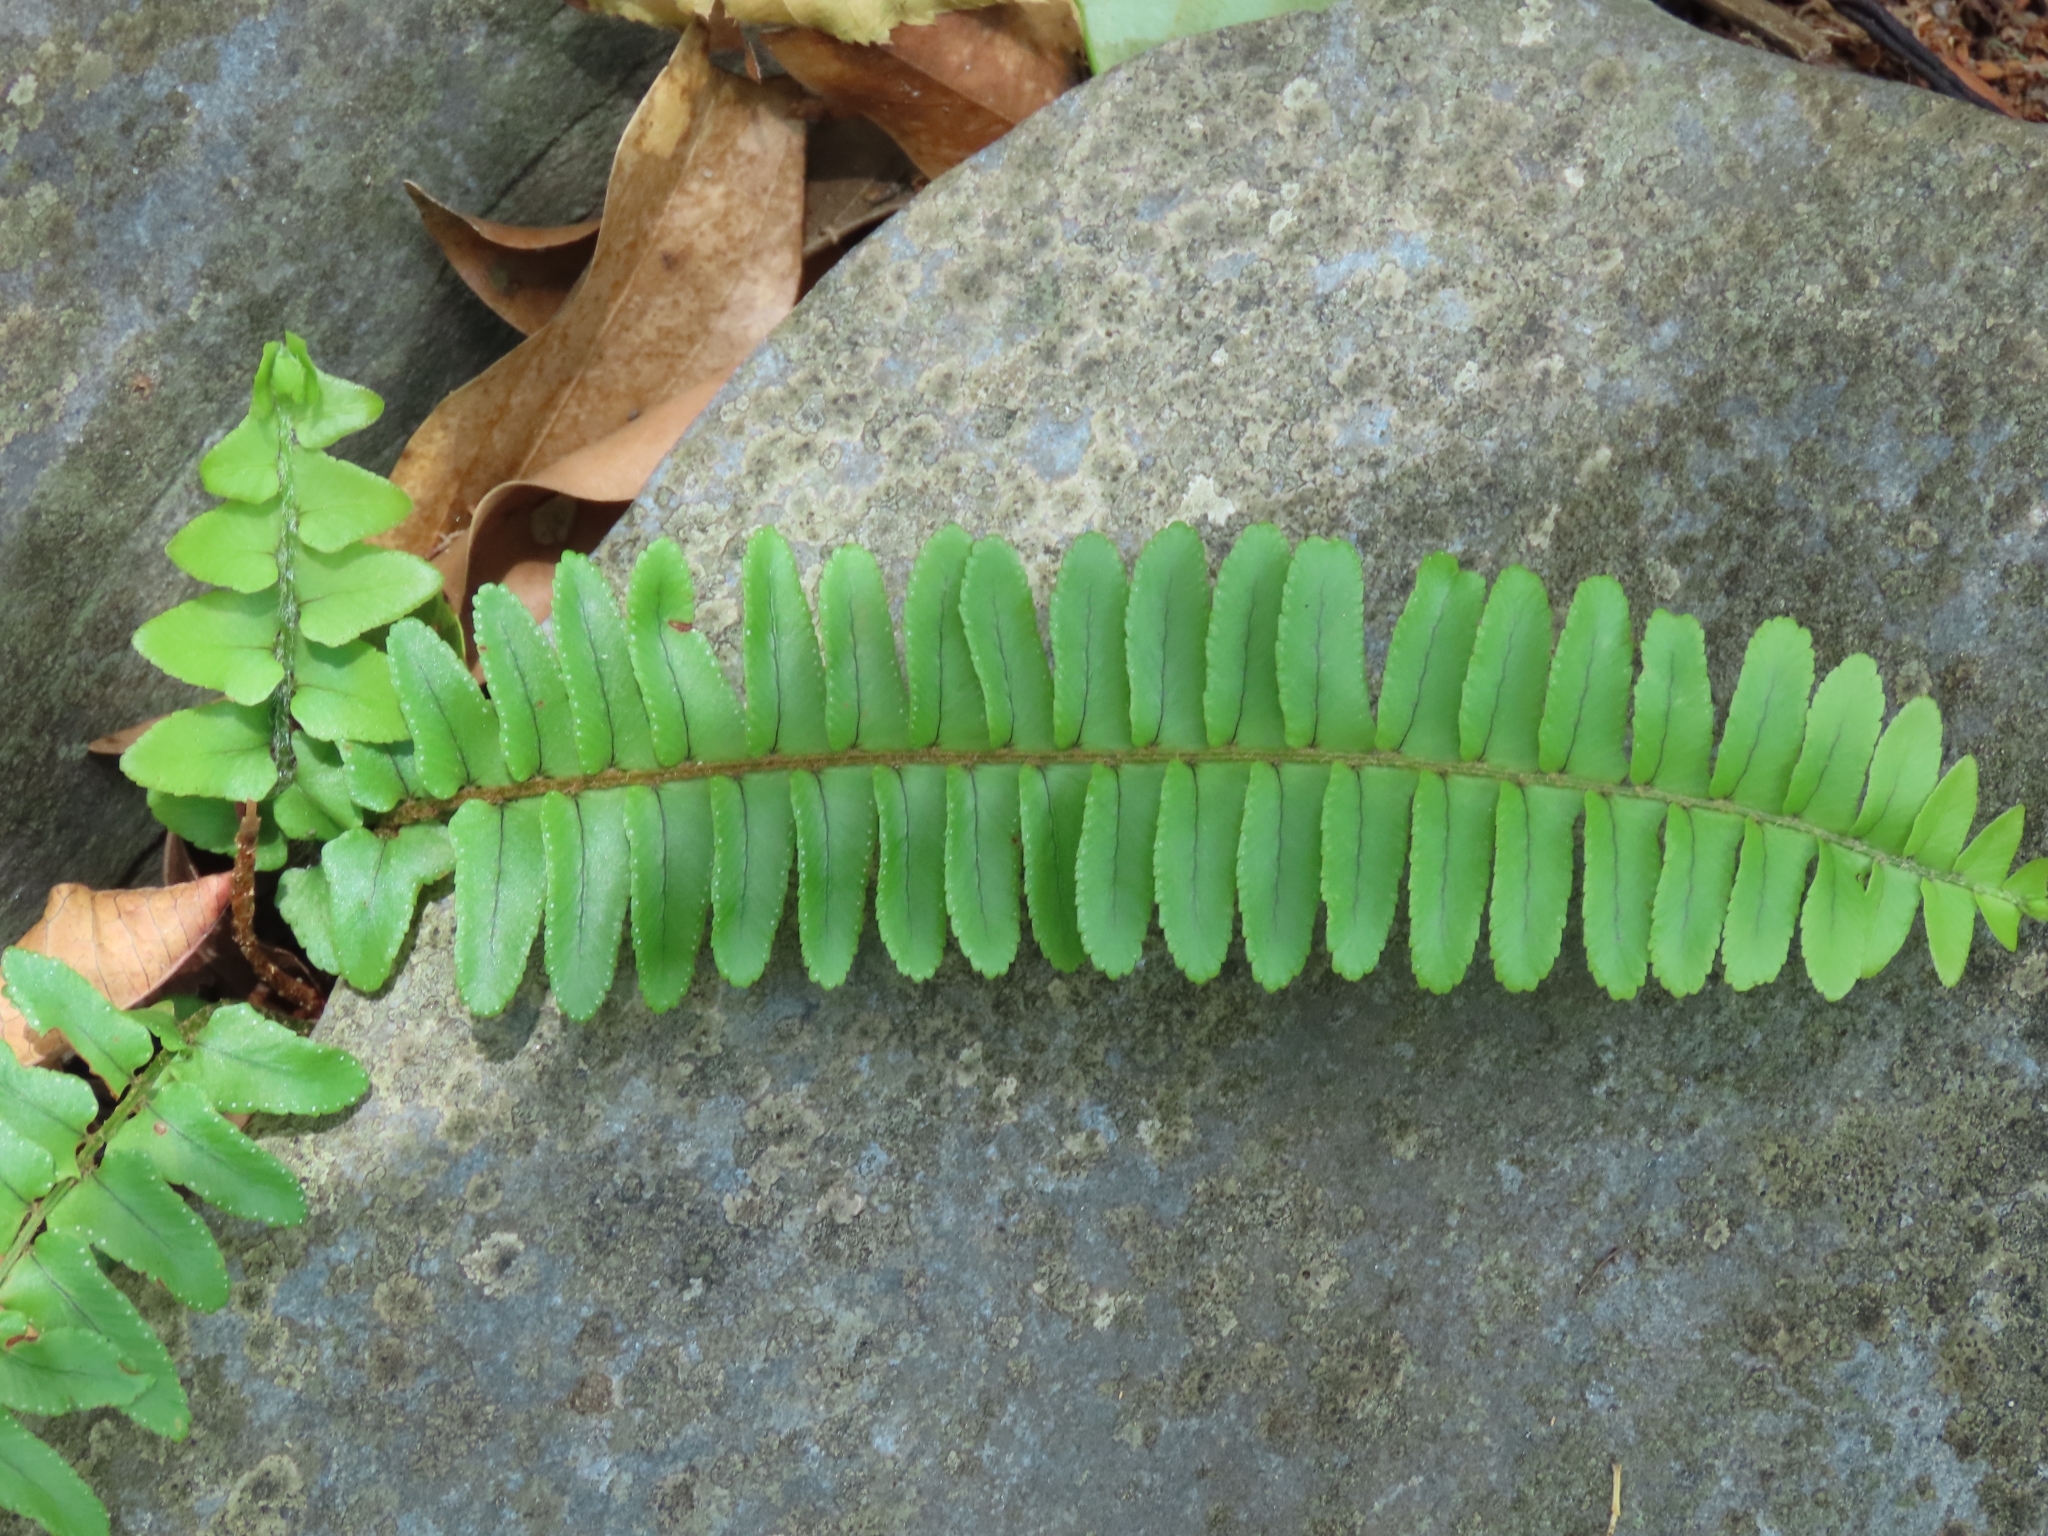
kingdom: Plantae
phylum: Tracheophyta
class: Polypodiopsida
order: Polypodiales
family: Nephrolepidaceae
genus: Nephrolepis
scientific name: Nephrolepis cordifolia
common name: Narrow swordfern
